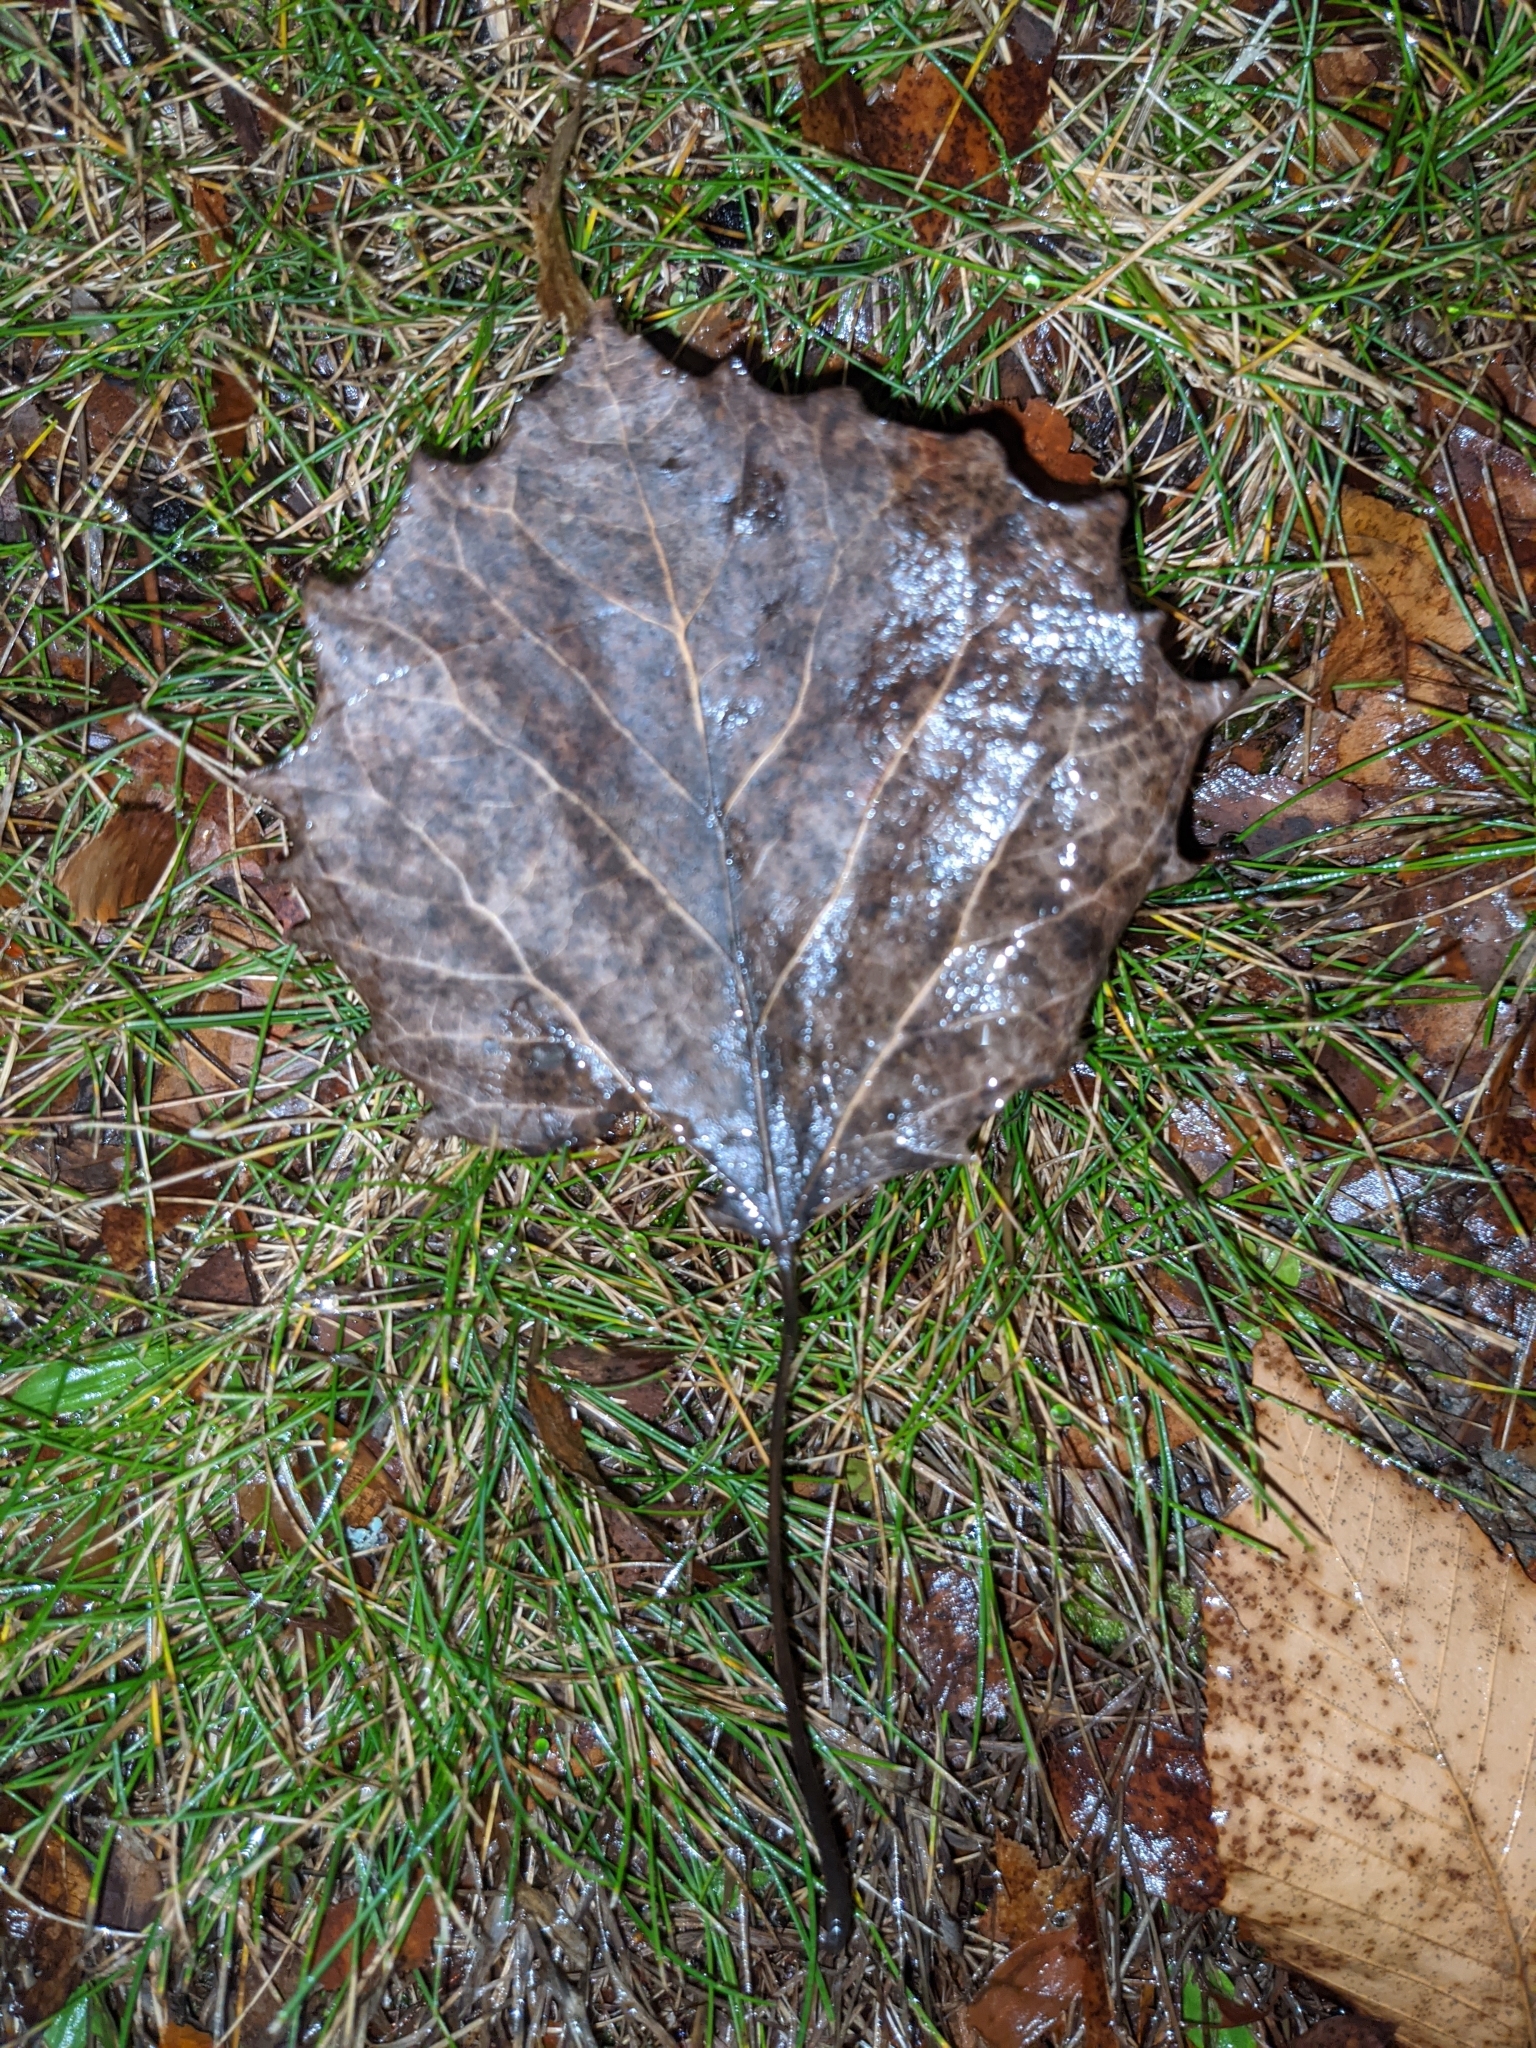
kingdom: Plantae
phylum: Tracheophyta
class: Magnoliopsida
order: Malpighiales
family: Salicaceae
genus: Populus
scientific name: Populus grandidentata
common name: Bigtooth aspen
